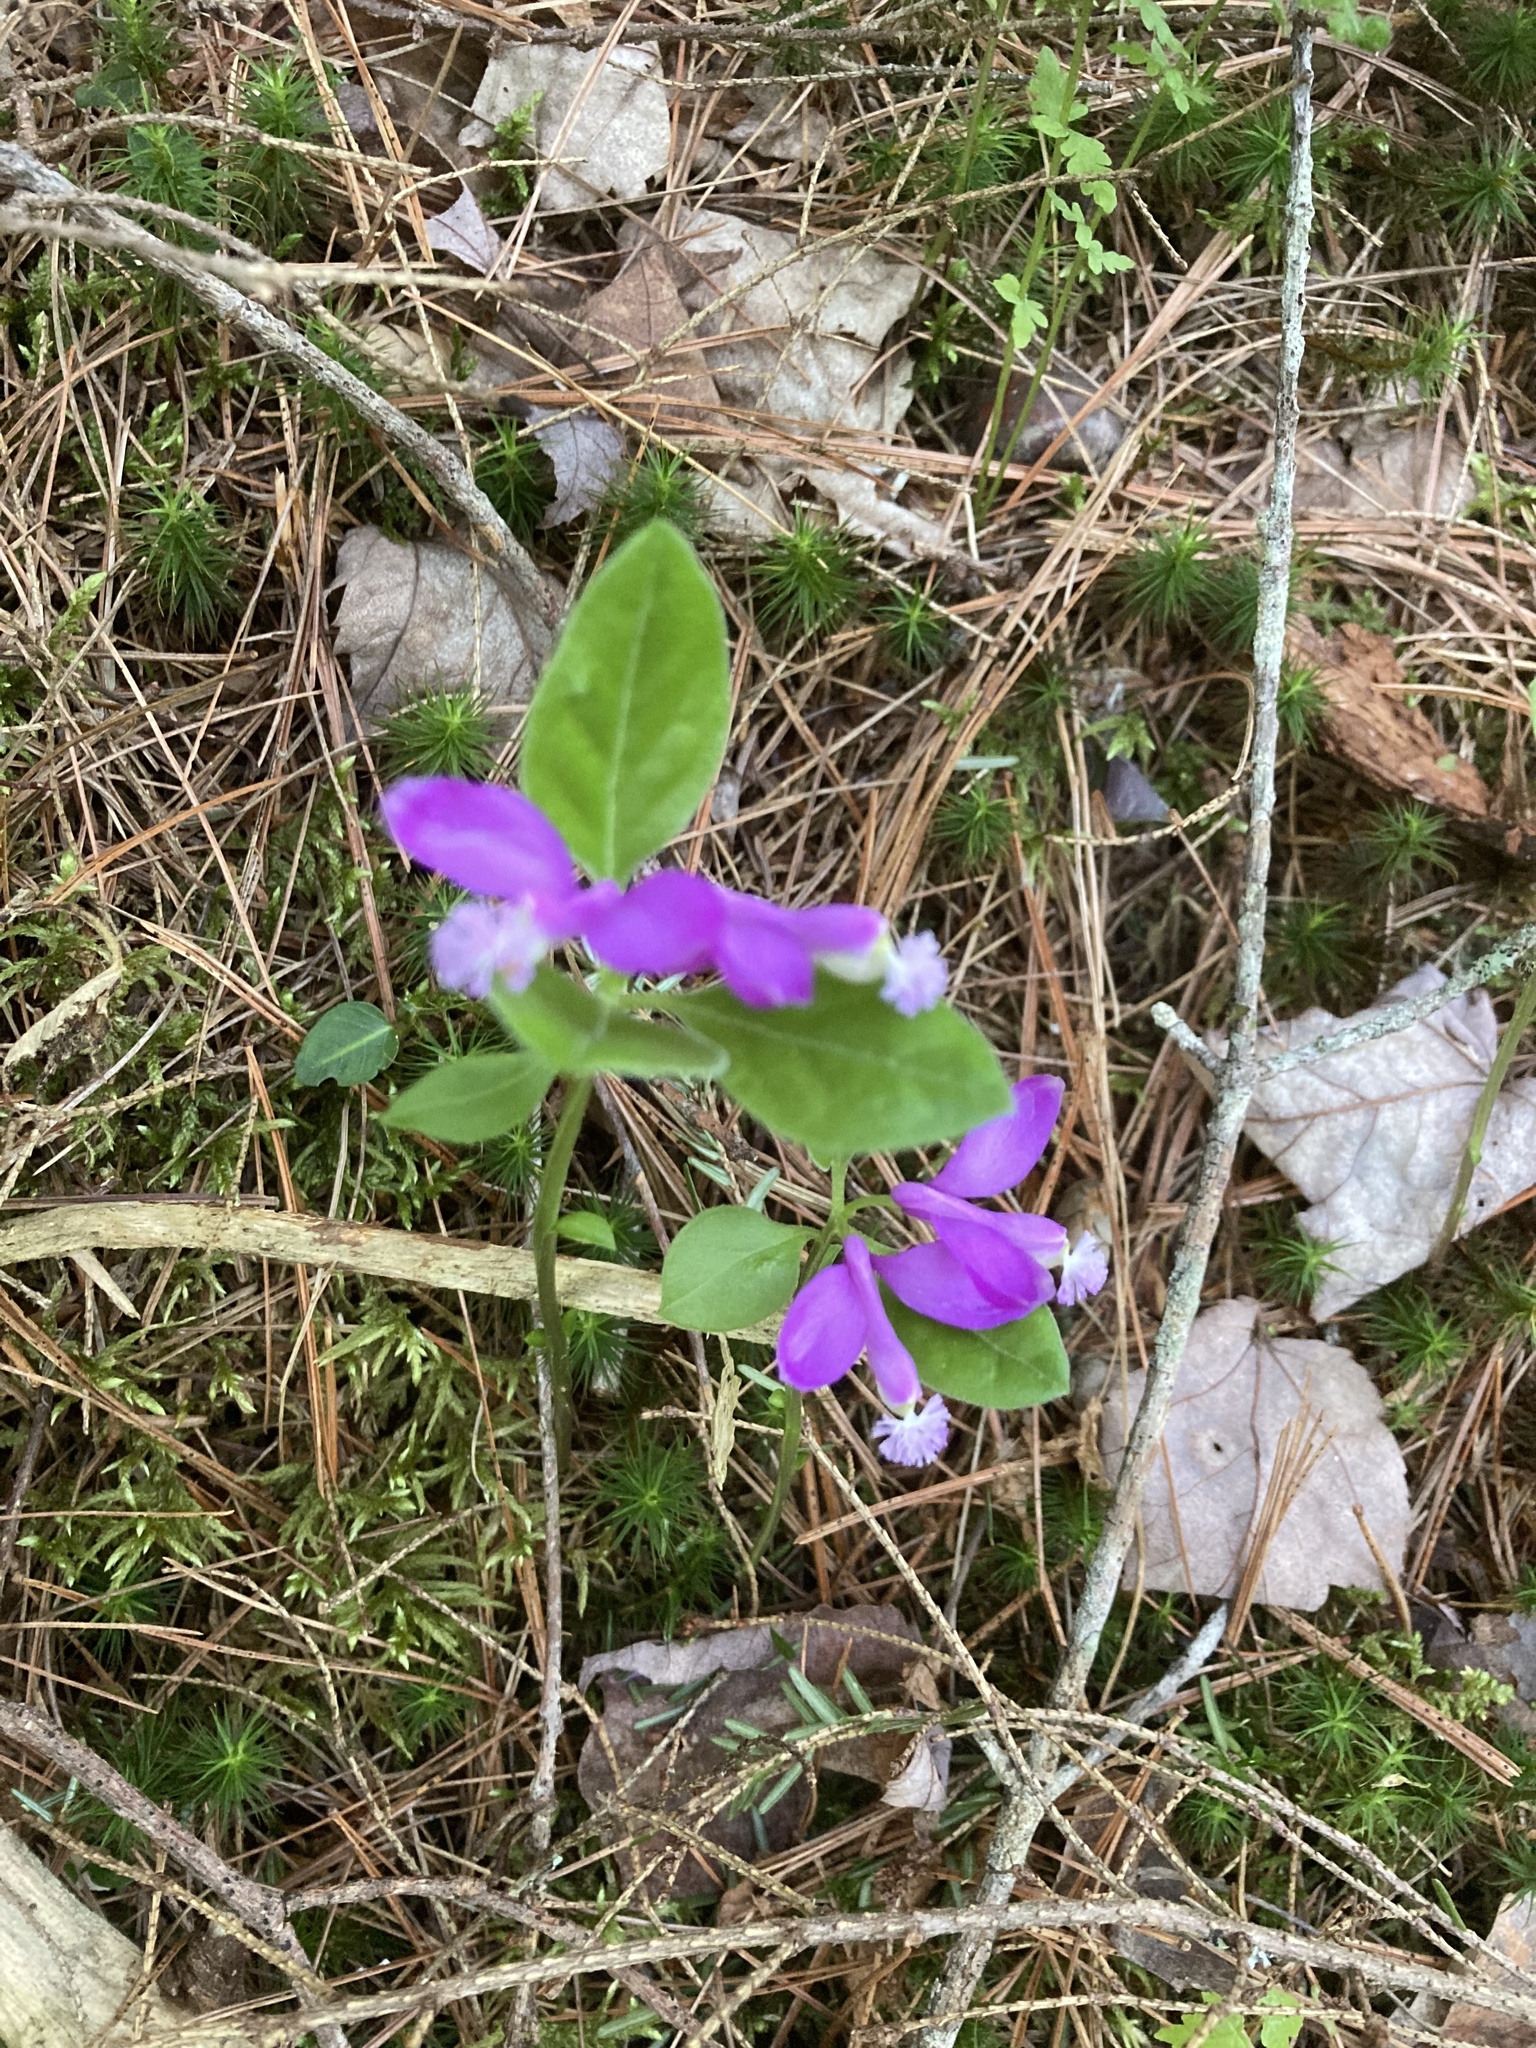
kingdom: Plantae
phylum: Tracheophyta
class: Magnoliopsida
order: Fabales
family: Polygalaceae
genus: Polygaloides
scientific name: Polygaloides paucifolia
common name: Bird-on-the-wing
